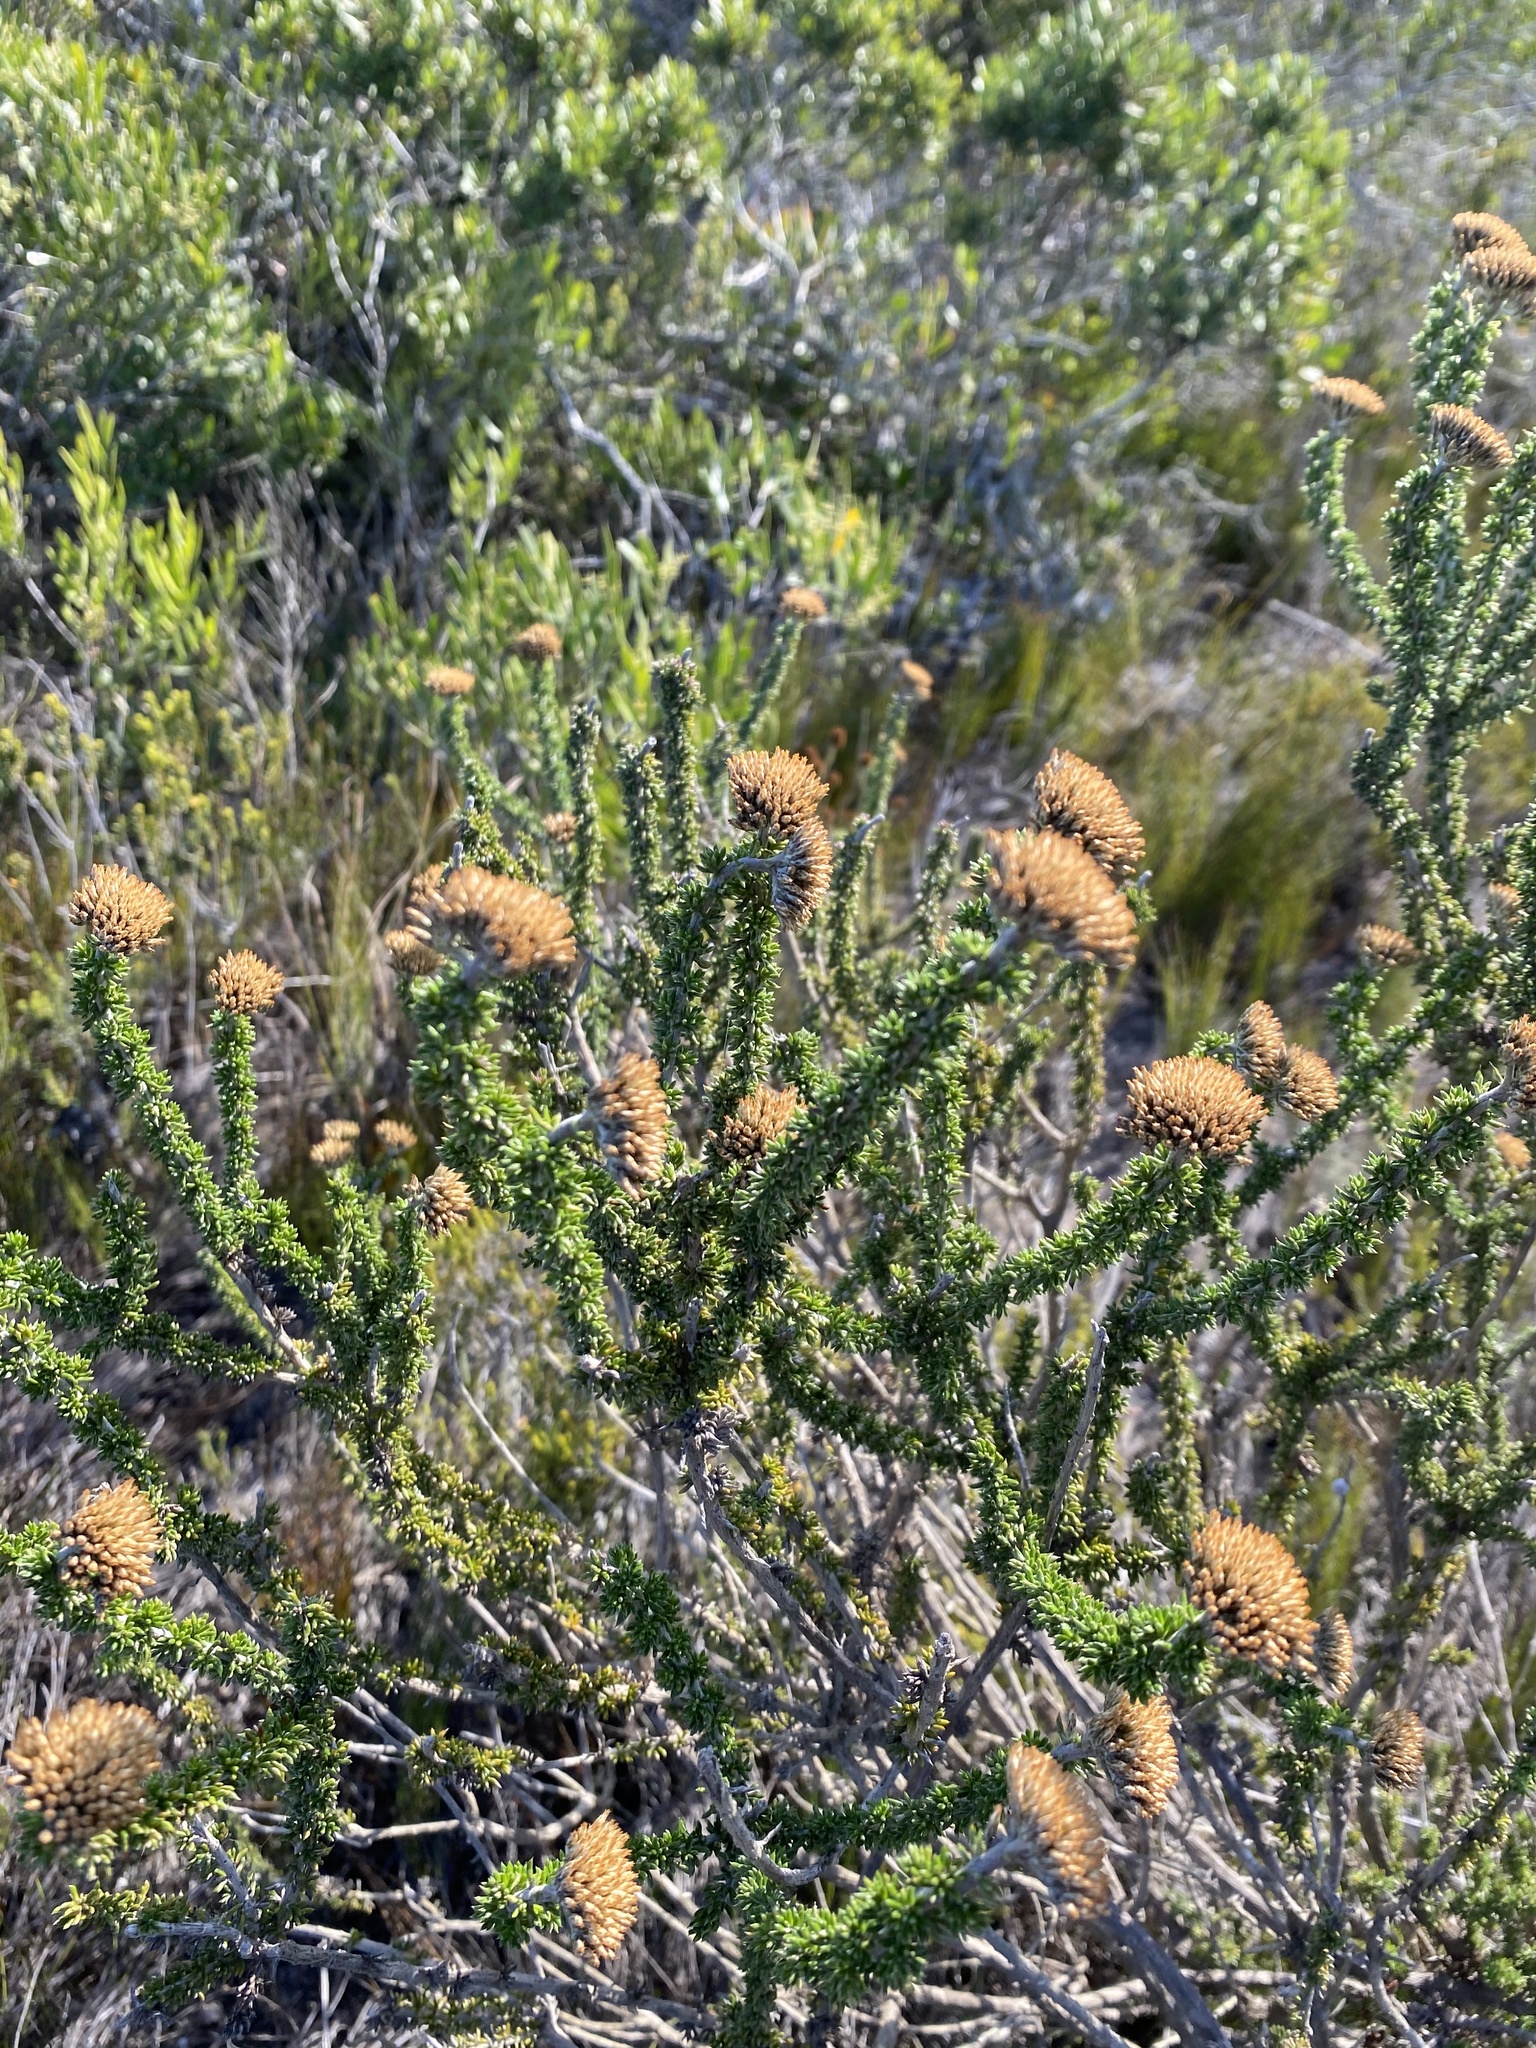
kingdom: Plantae
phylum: Tracheophyta
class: Magnoliopsida
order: Asterales
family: Asteraceae
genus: Metalasia
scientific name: Metalasia luteola
